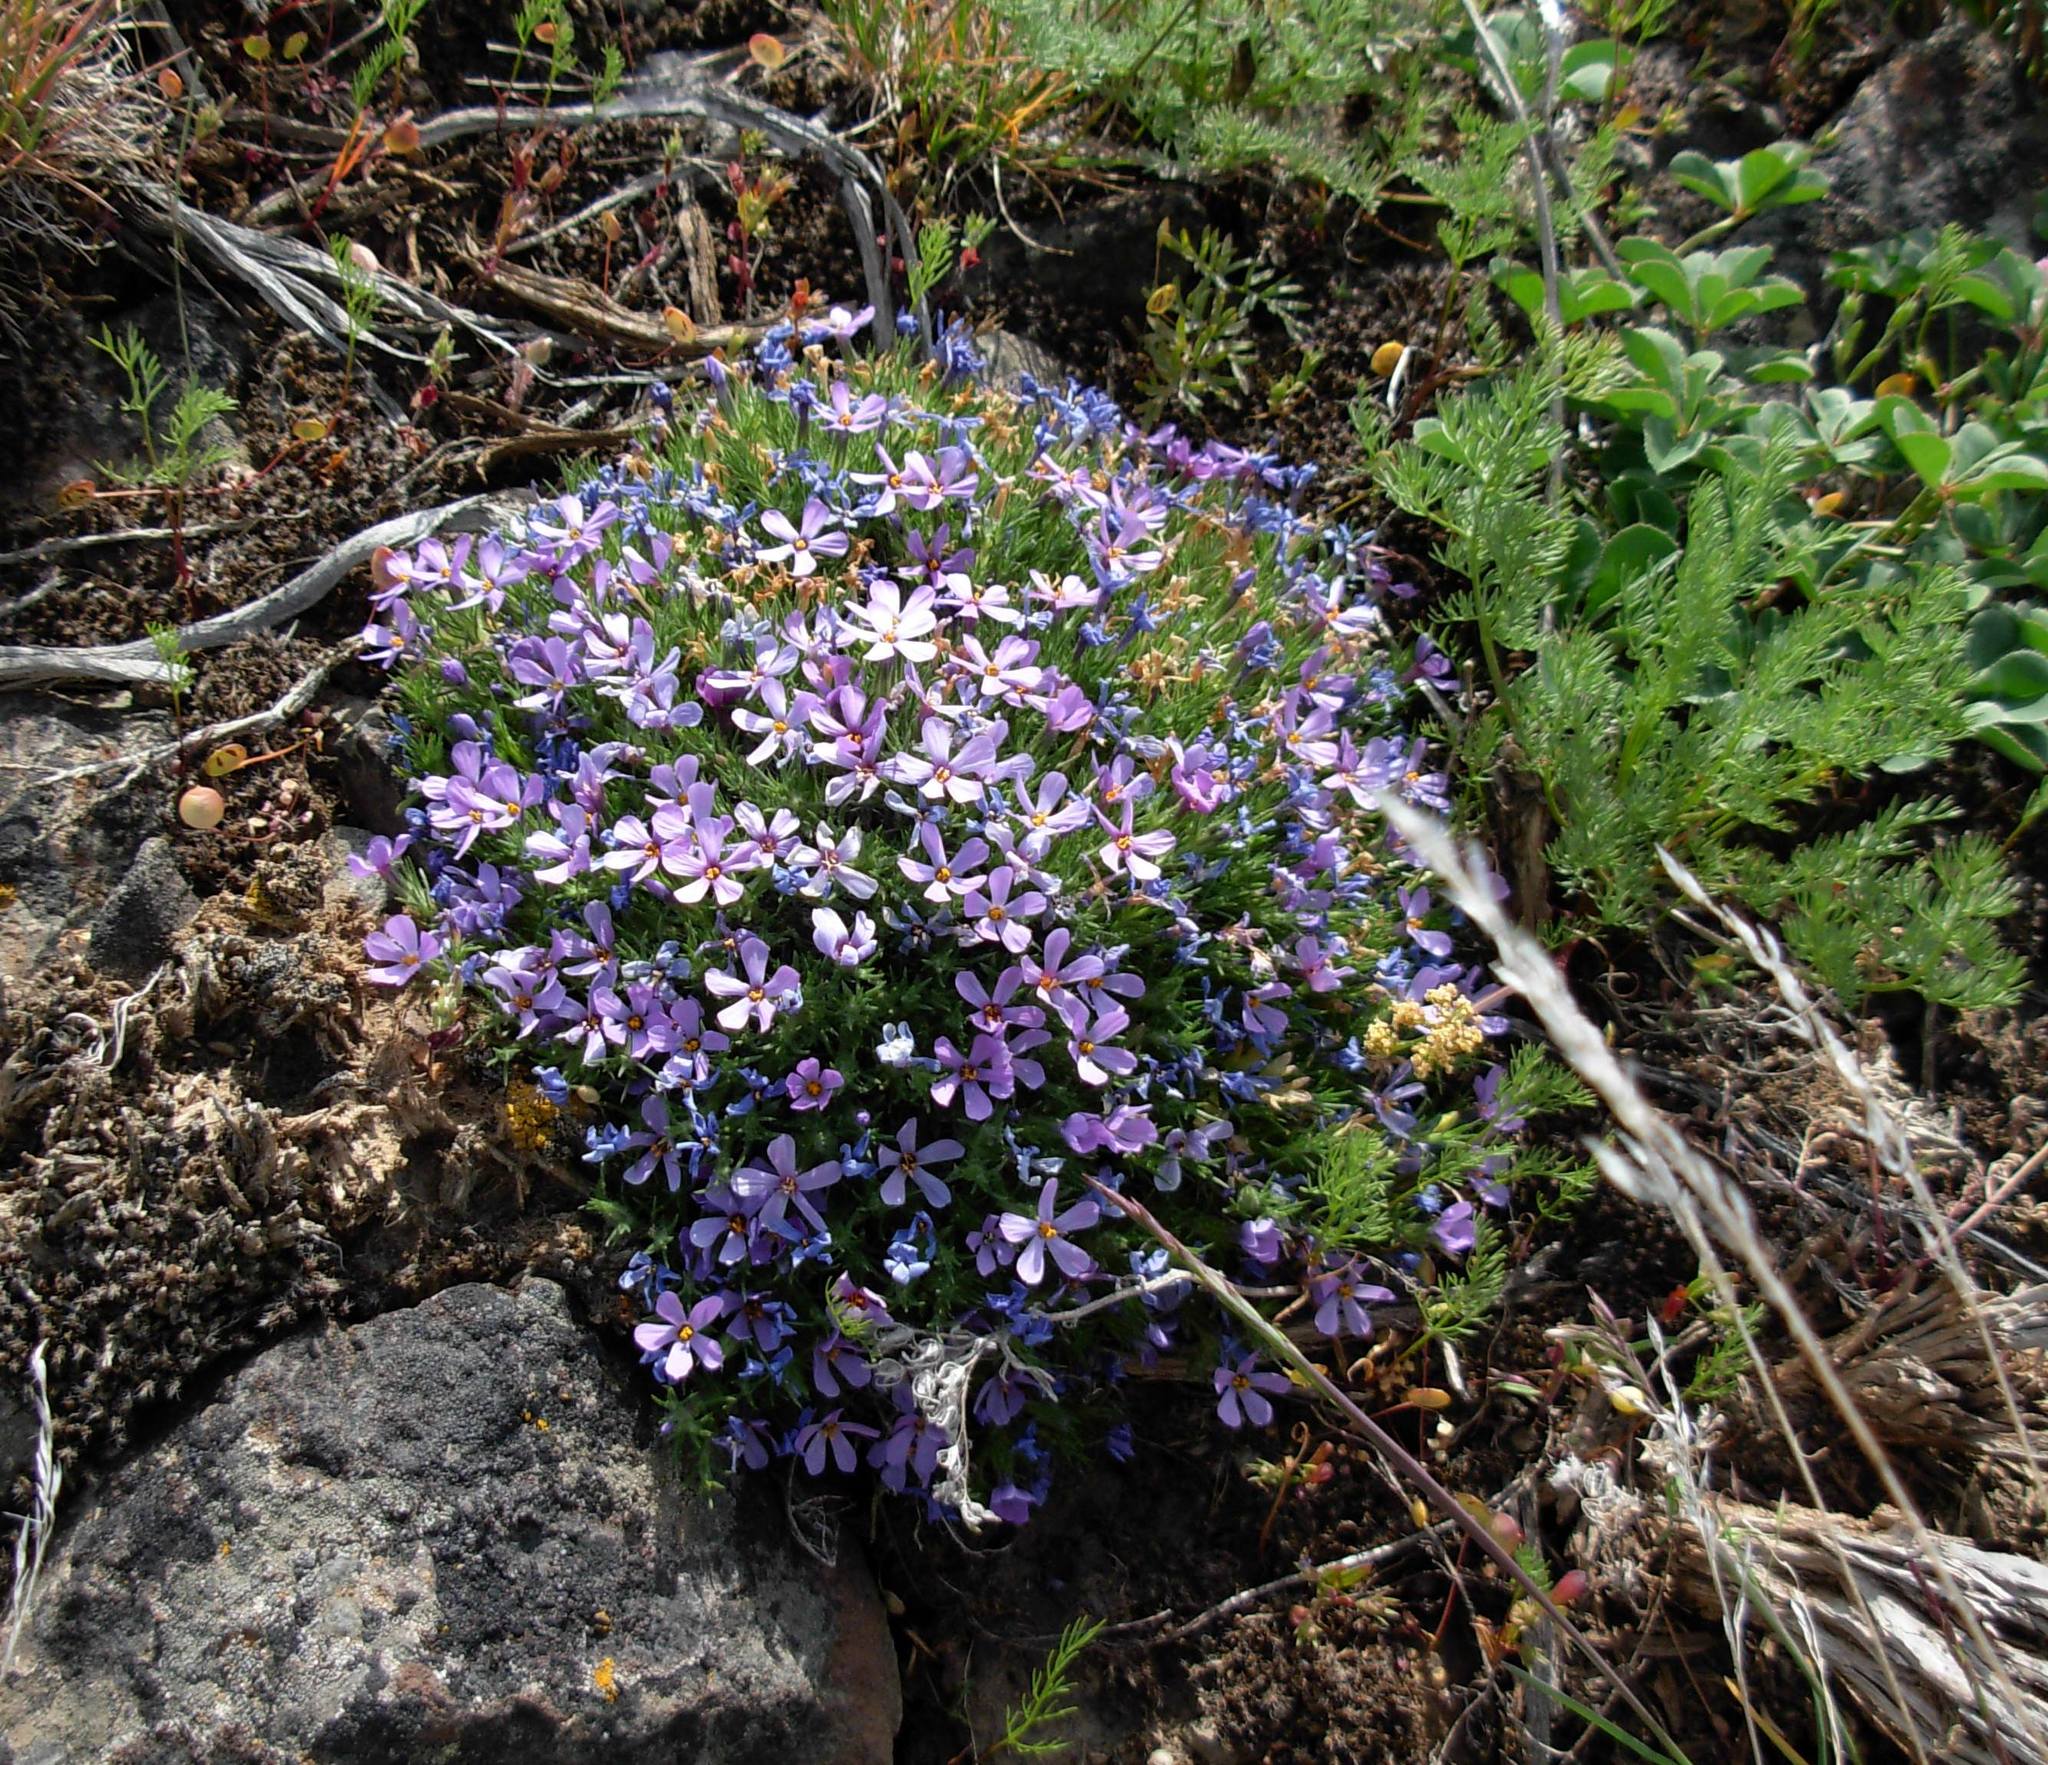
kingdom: Plantae
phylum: Tracheophyta
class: Magnoliopsida
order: Ericales
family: Polemoniaceae
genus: Phlox
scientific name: Phlox douglasii
